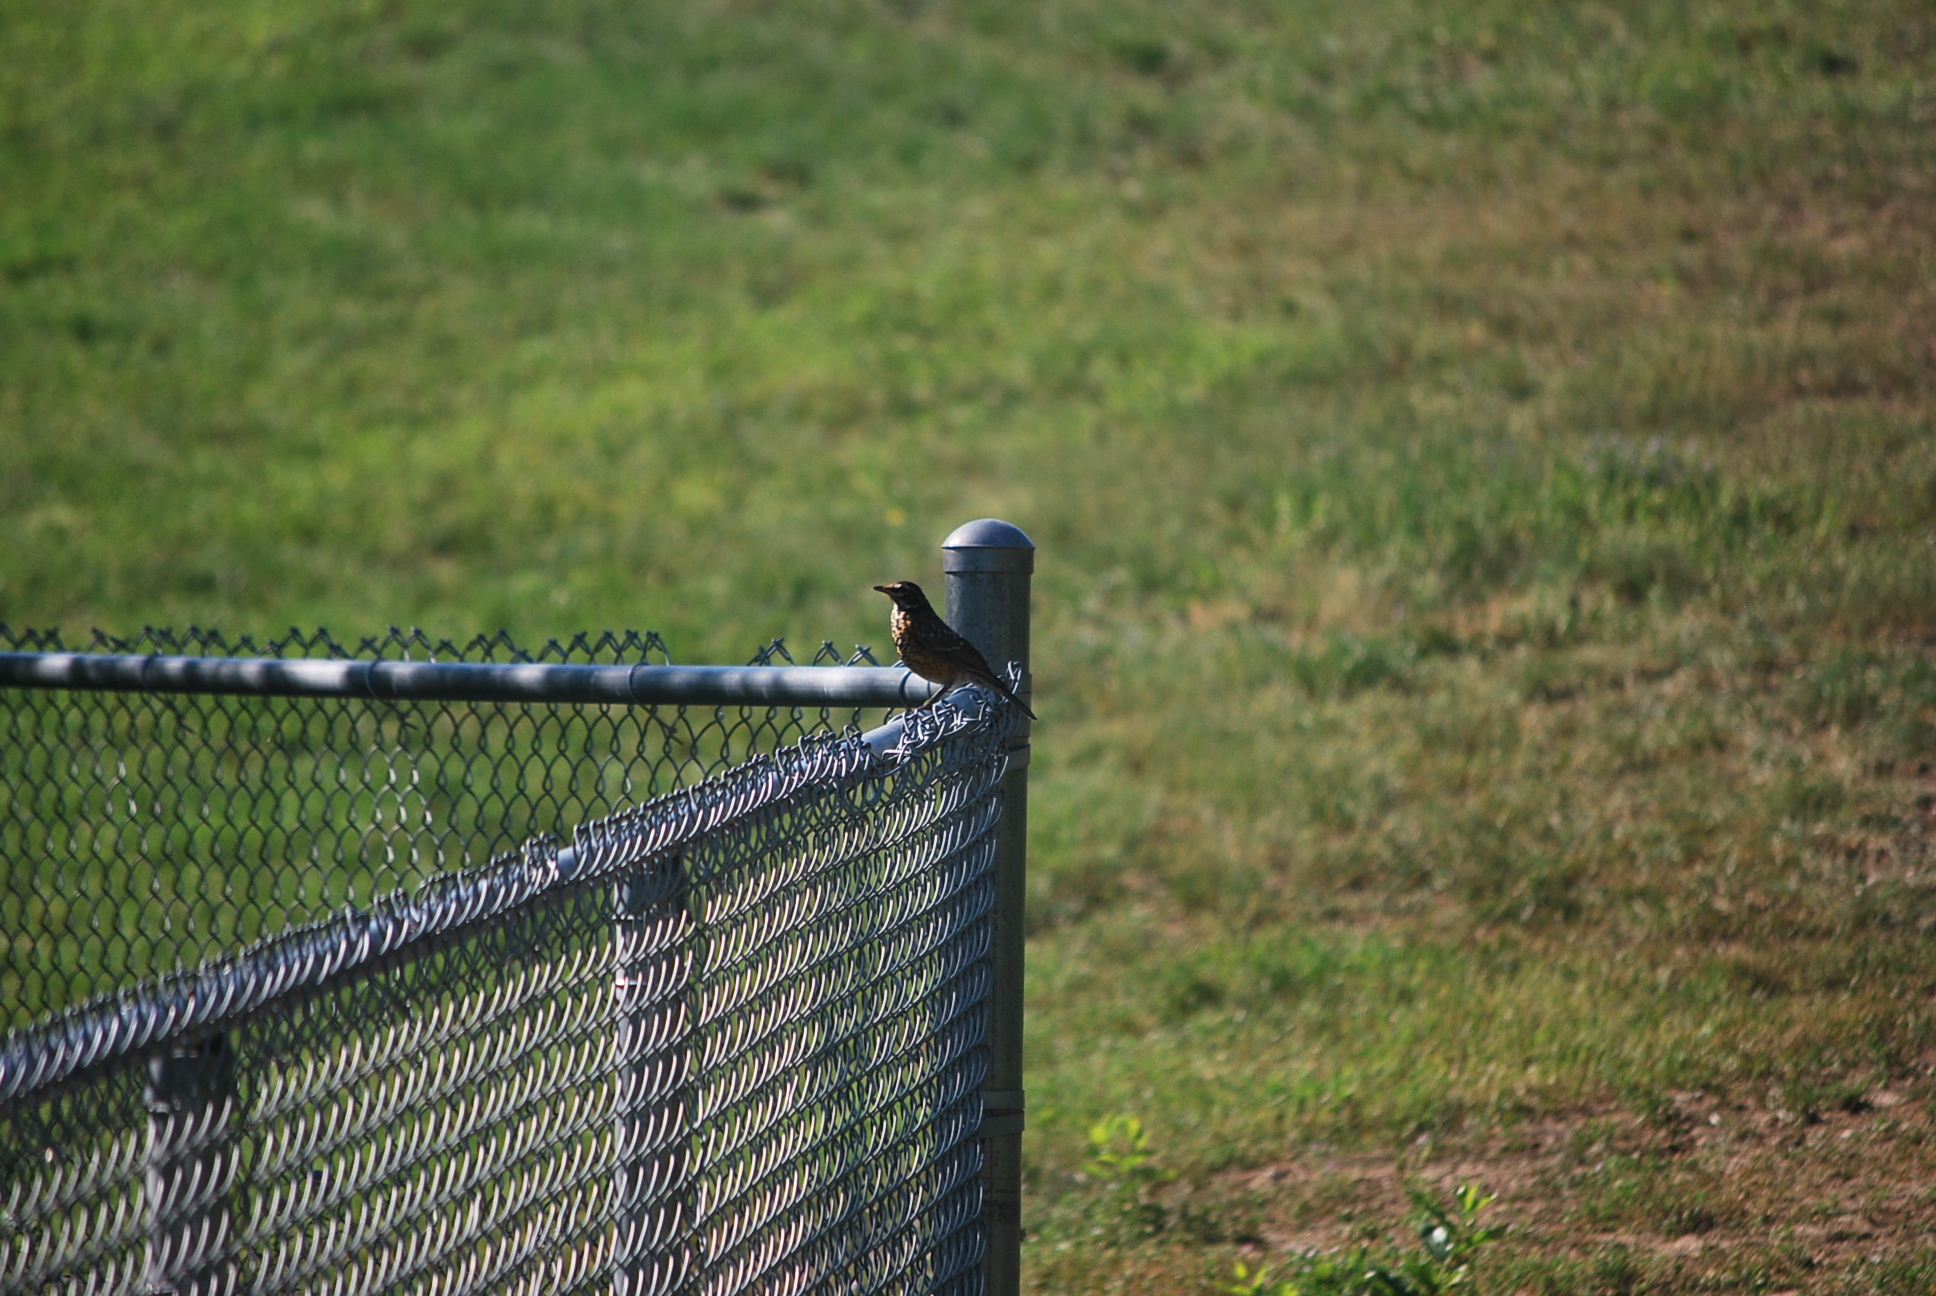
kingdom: Animalia
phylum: Chordata
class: Aves
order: Passeriformes
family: Turdidae
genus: Turdus
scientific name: Turdus migratorius
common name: American robin
